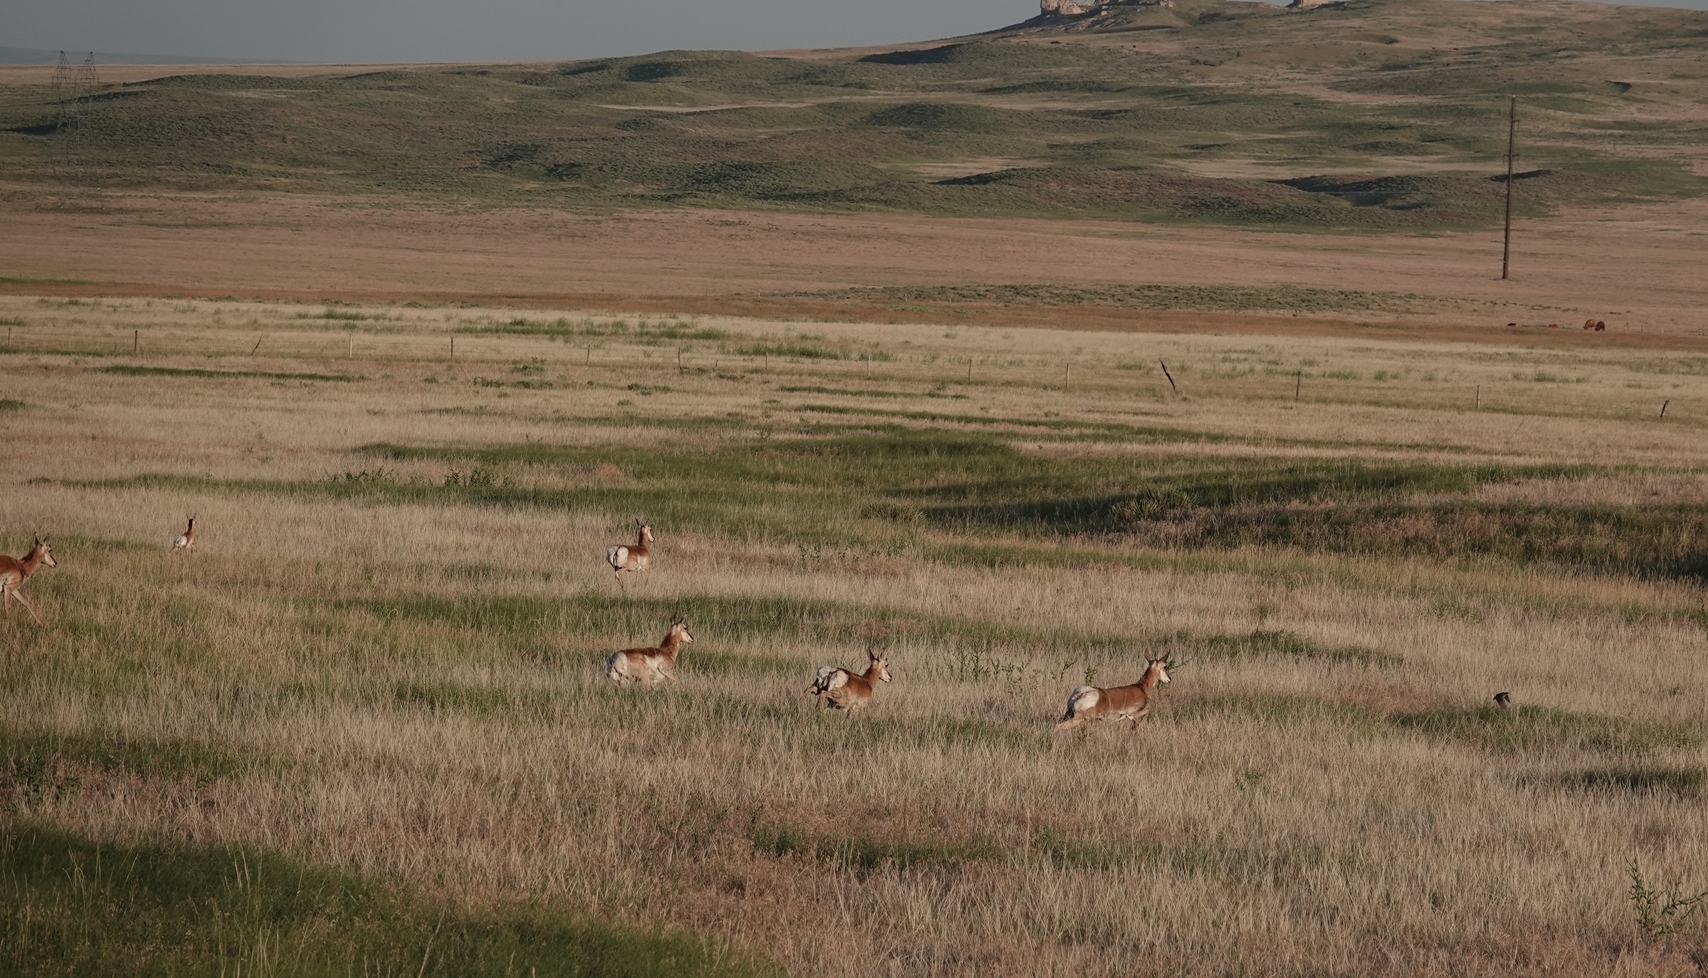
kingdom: Animalia
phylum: Chordata
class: Mammalia
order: Artiodactyla
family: Antilocapridae
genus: Antilocapra
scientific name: Antilocapra americana
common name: Pronghorn
